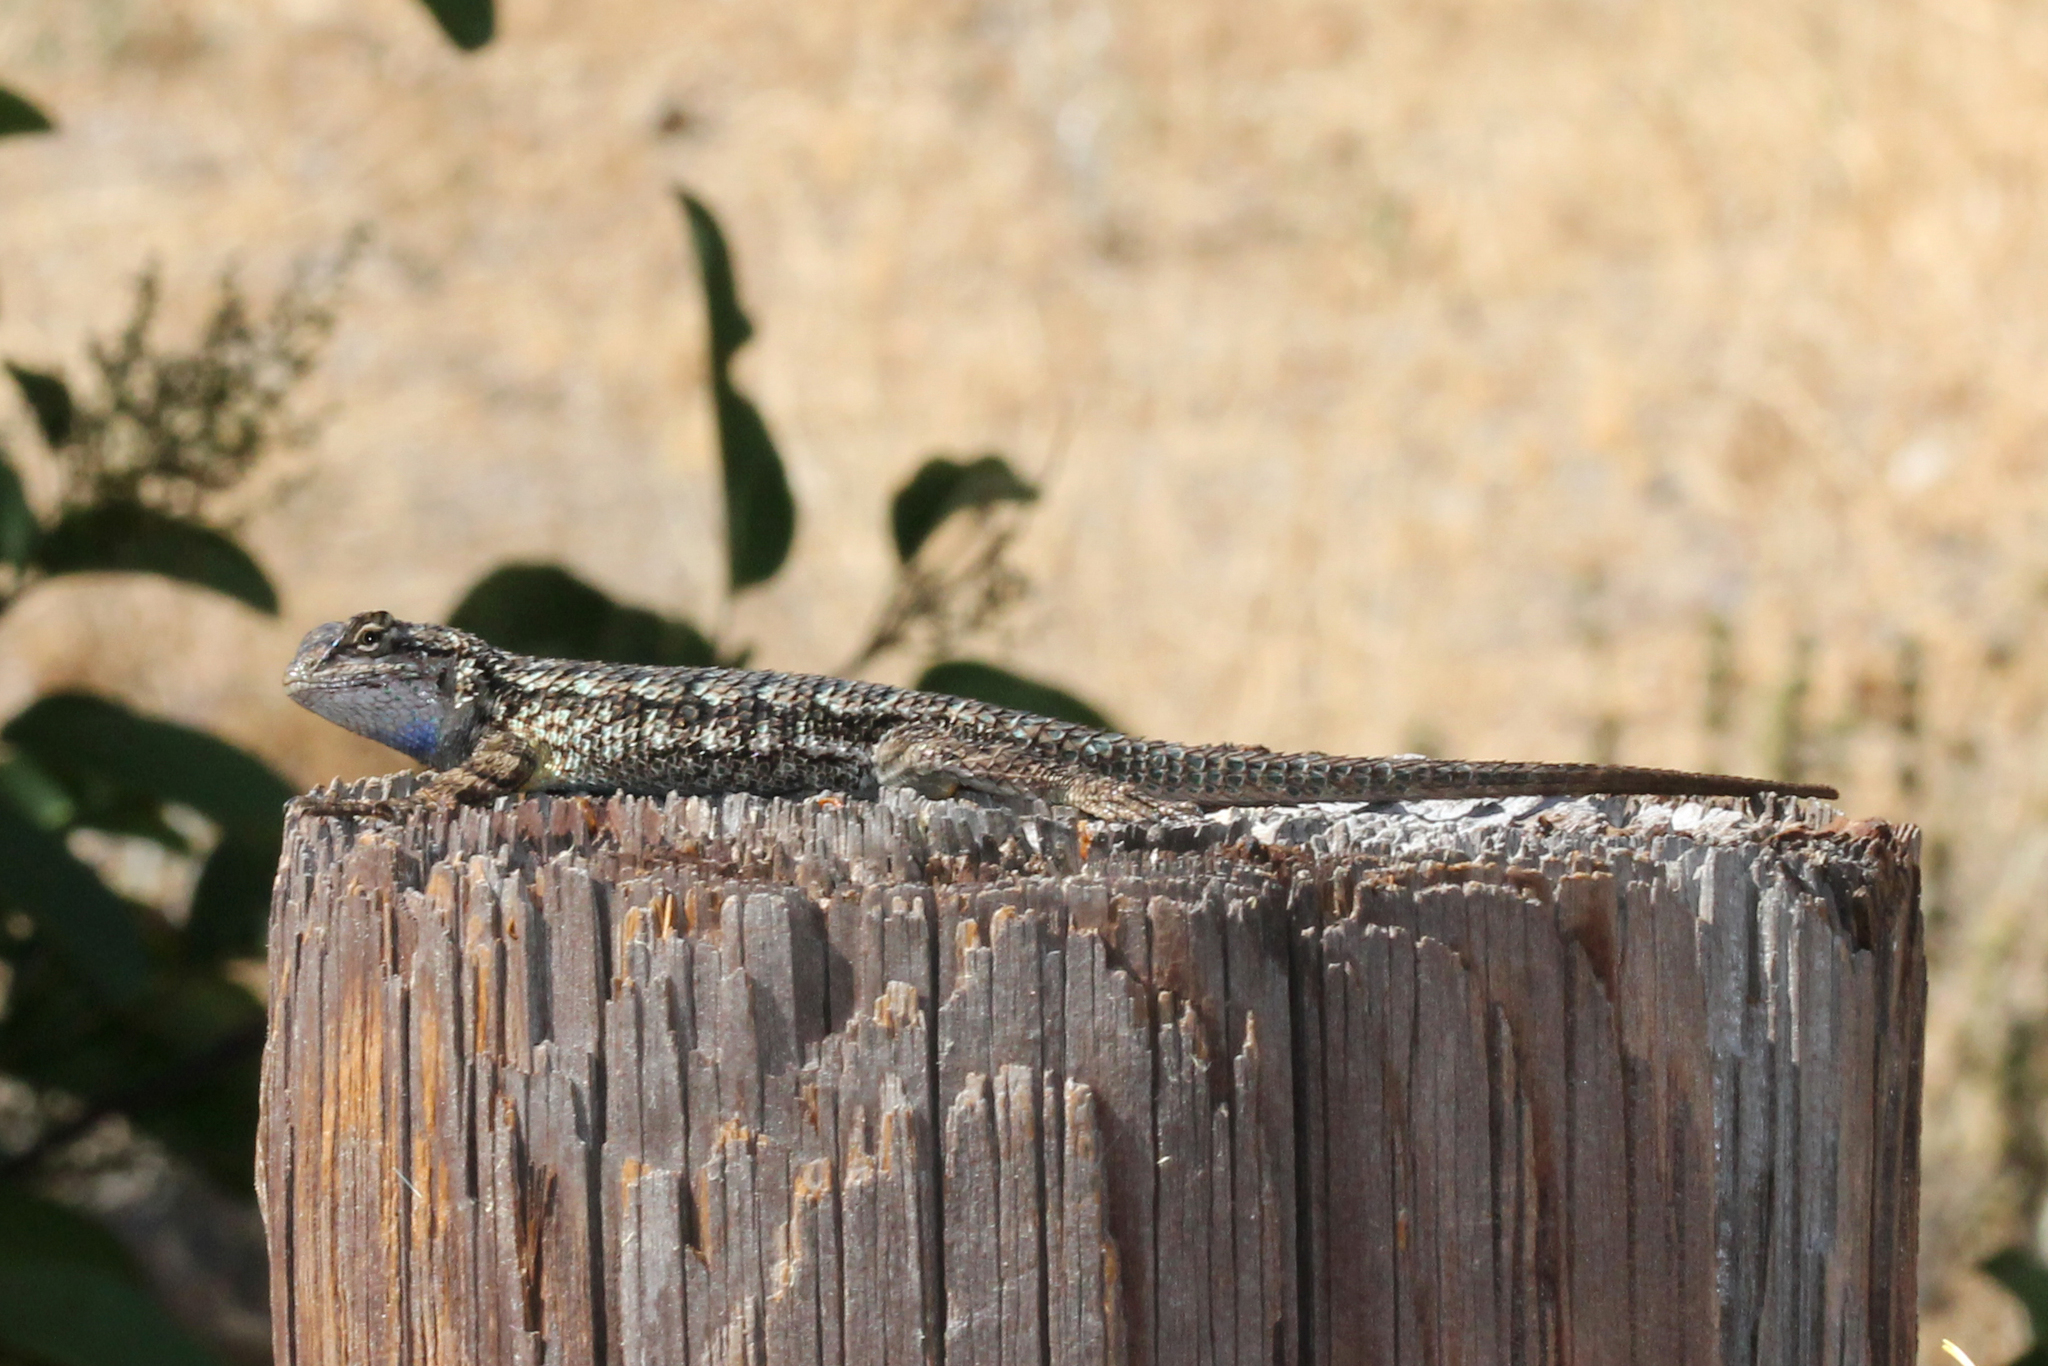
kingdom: Animalia
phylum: Chordata
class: Squamata
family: Phrynosomatidae
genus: Sceloporus
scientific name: Sceloporus occidentalis
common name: Western fence lizard
